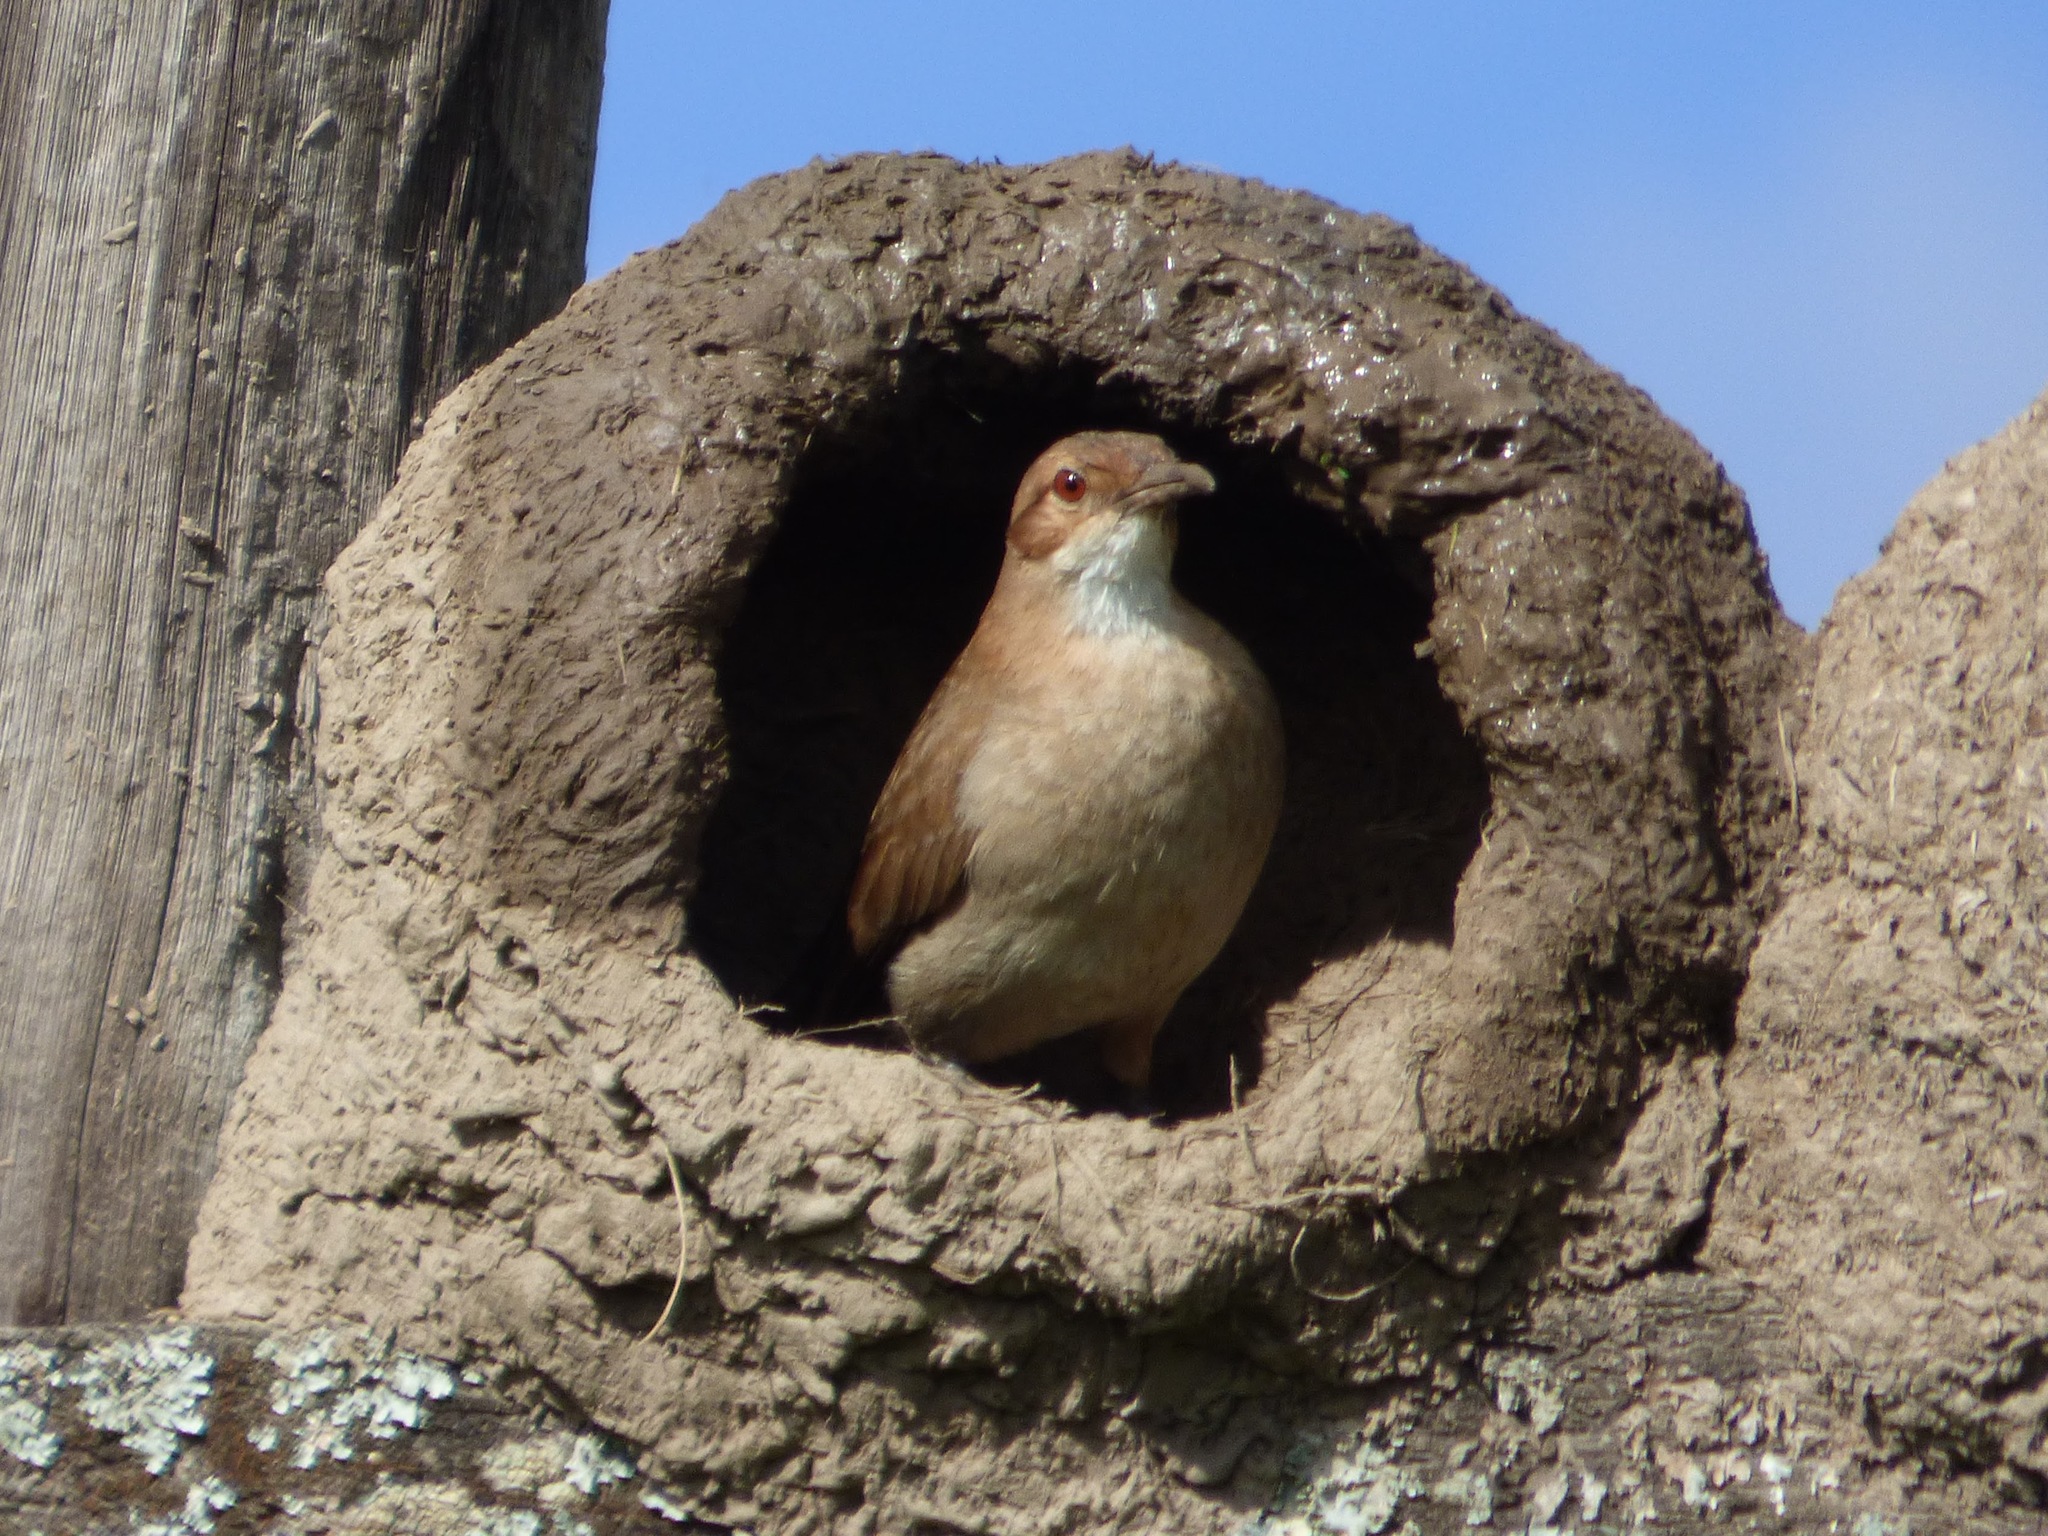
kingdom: Animalia
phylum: Chordata
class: Aves
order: Passeriformes
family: Furnariidae
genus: Furnarius
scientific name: Furnarius rufus
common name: Rufous hornero
